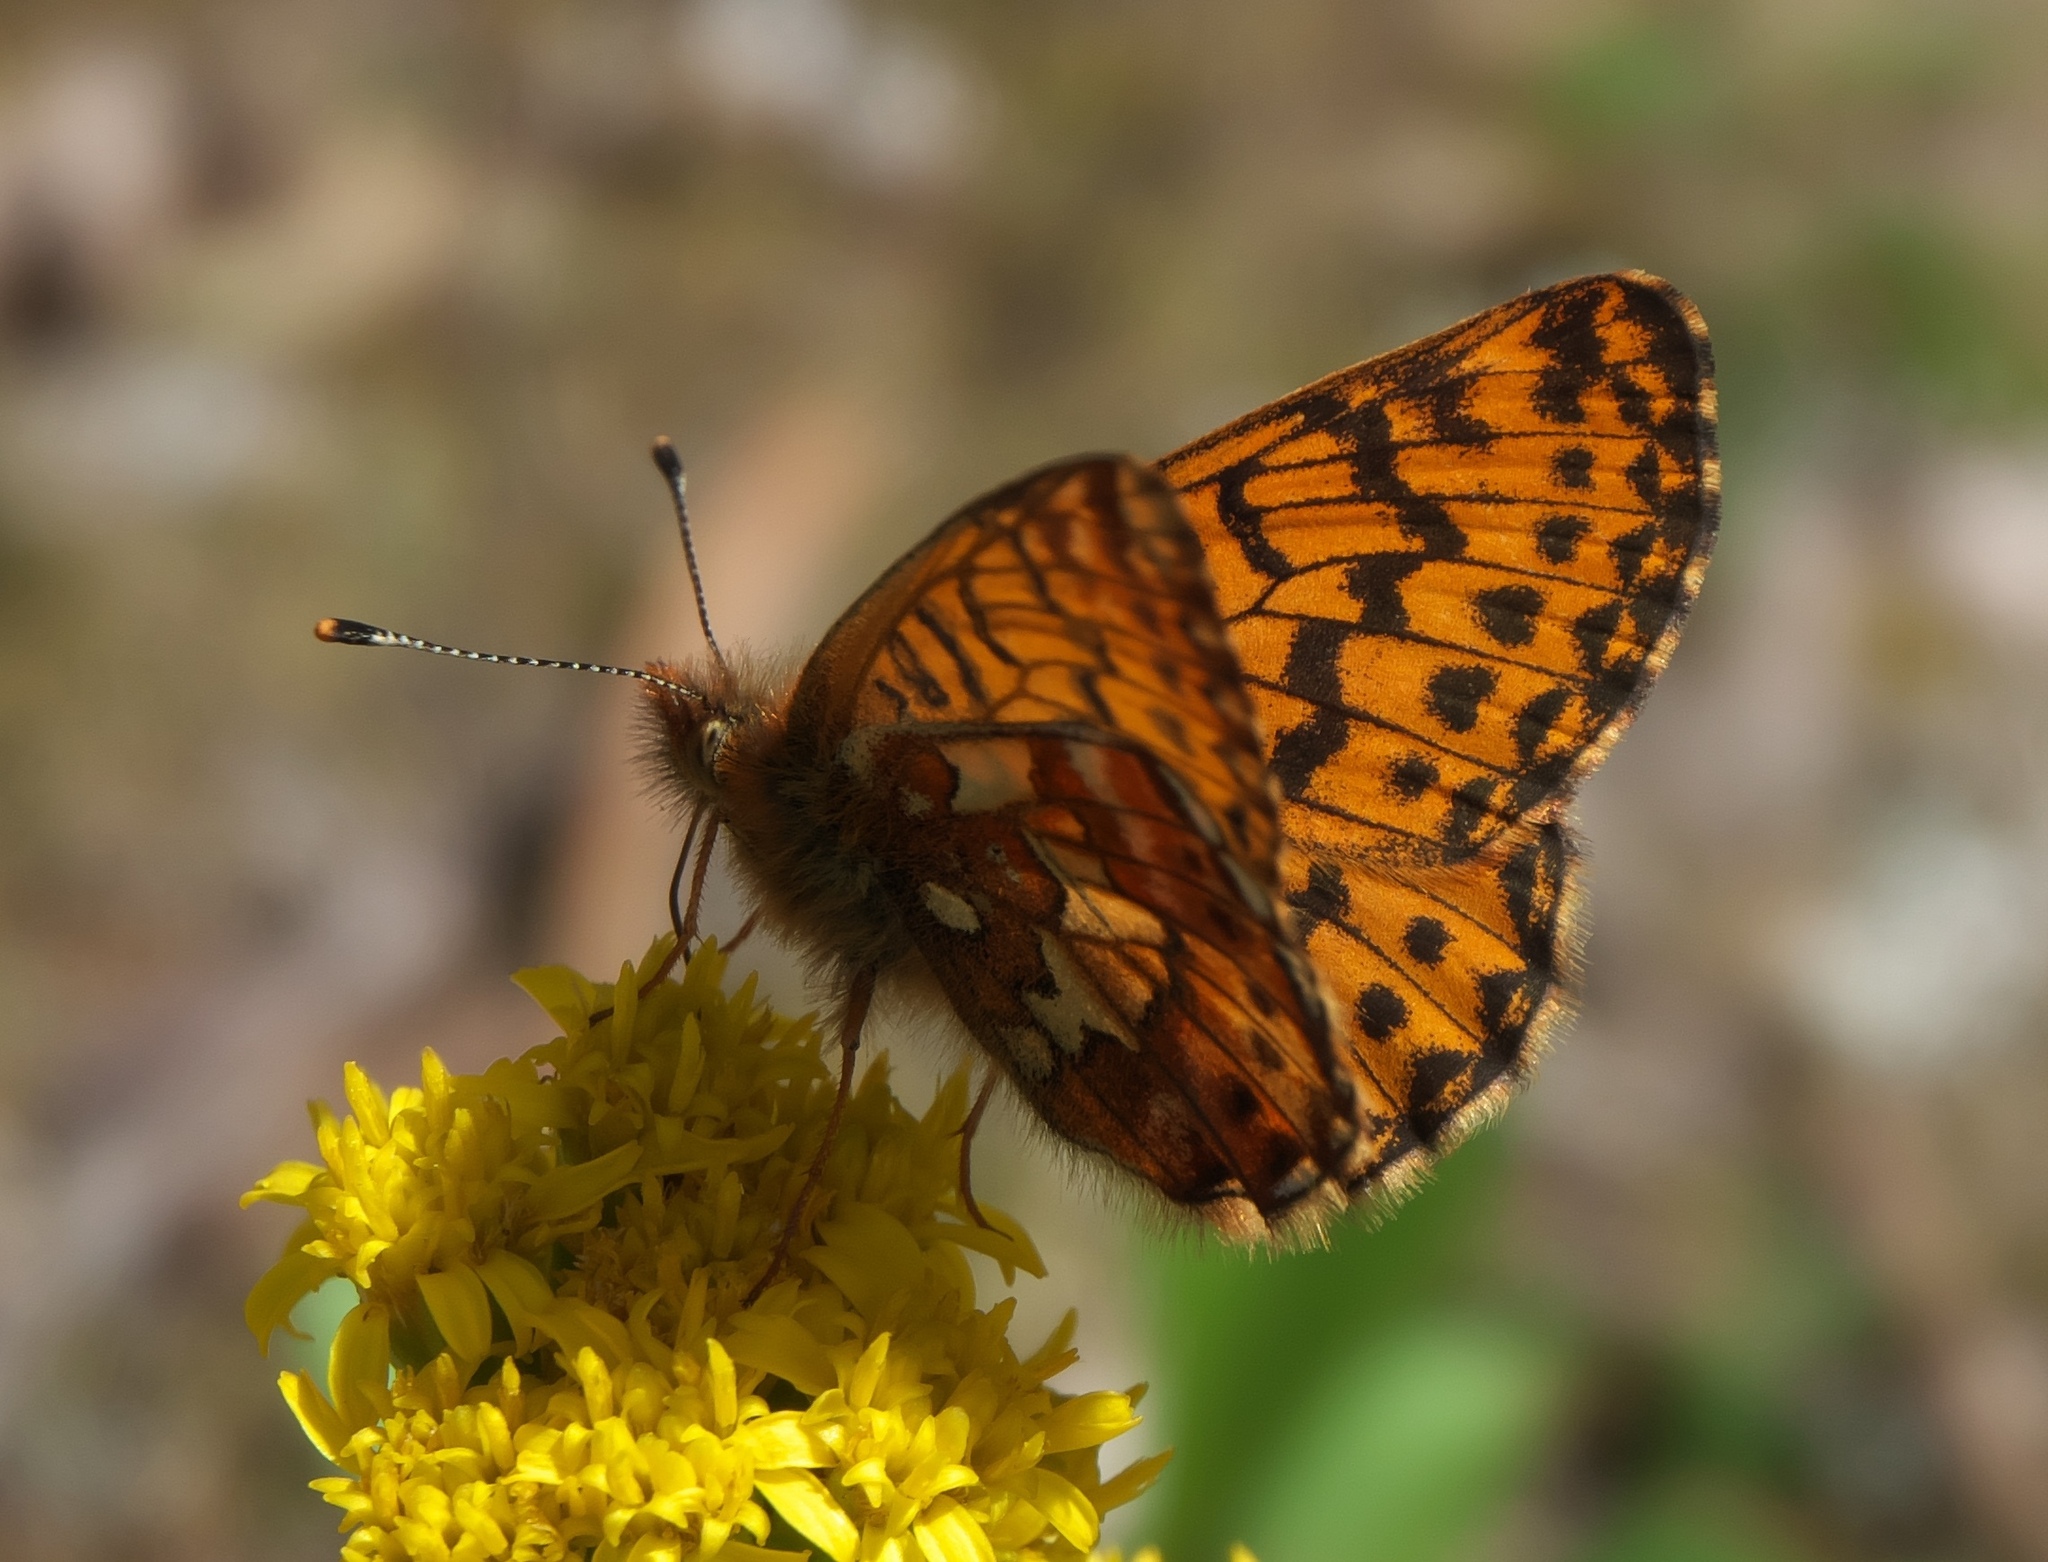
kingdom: Animalia
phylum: Arthropoda
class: Insecta
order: Lepidoptera
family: Nymphalidae
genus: Boloria
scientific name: Boloria chariclea
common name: Arctic fritillary
